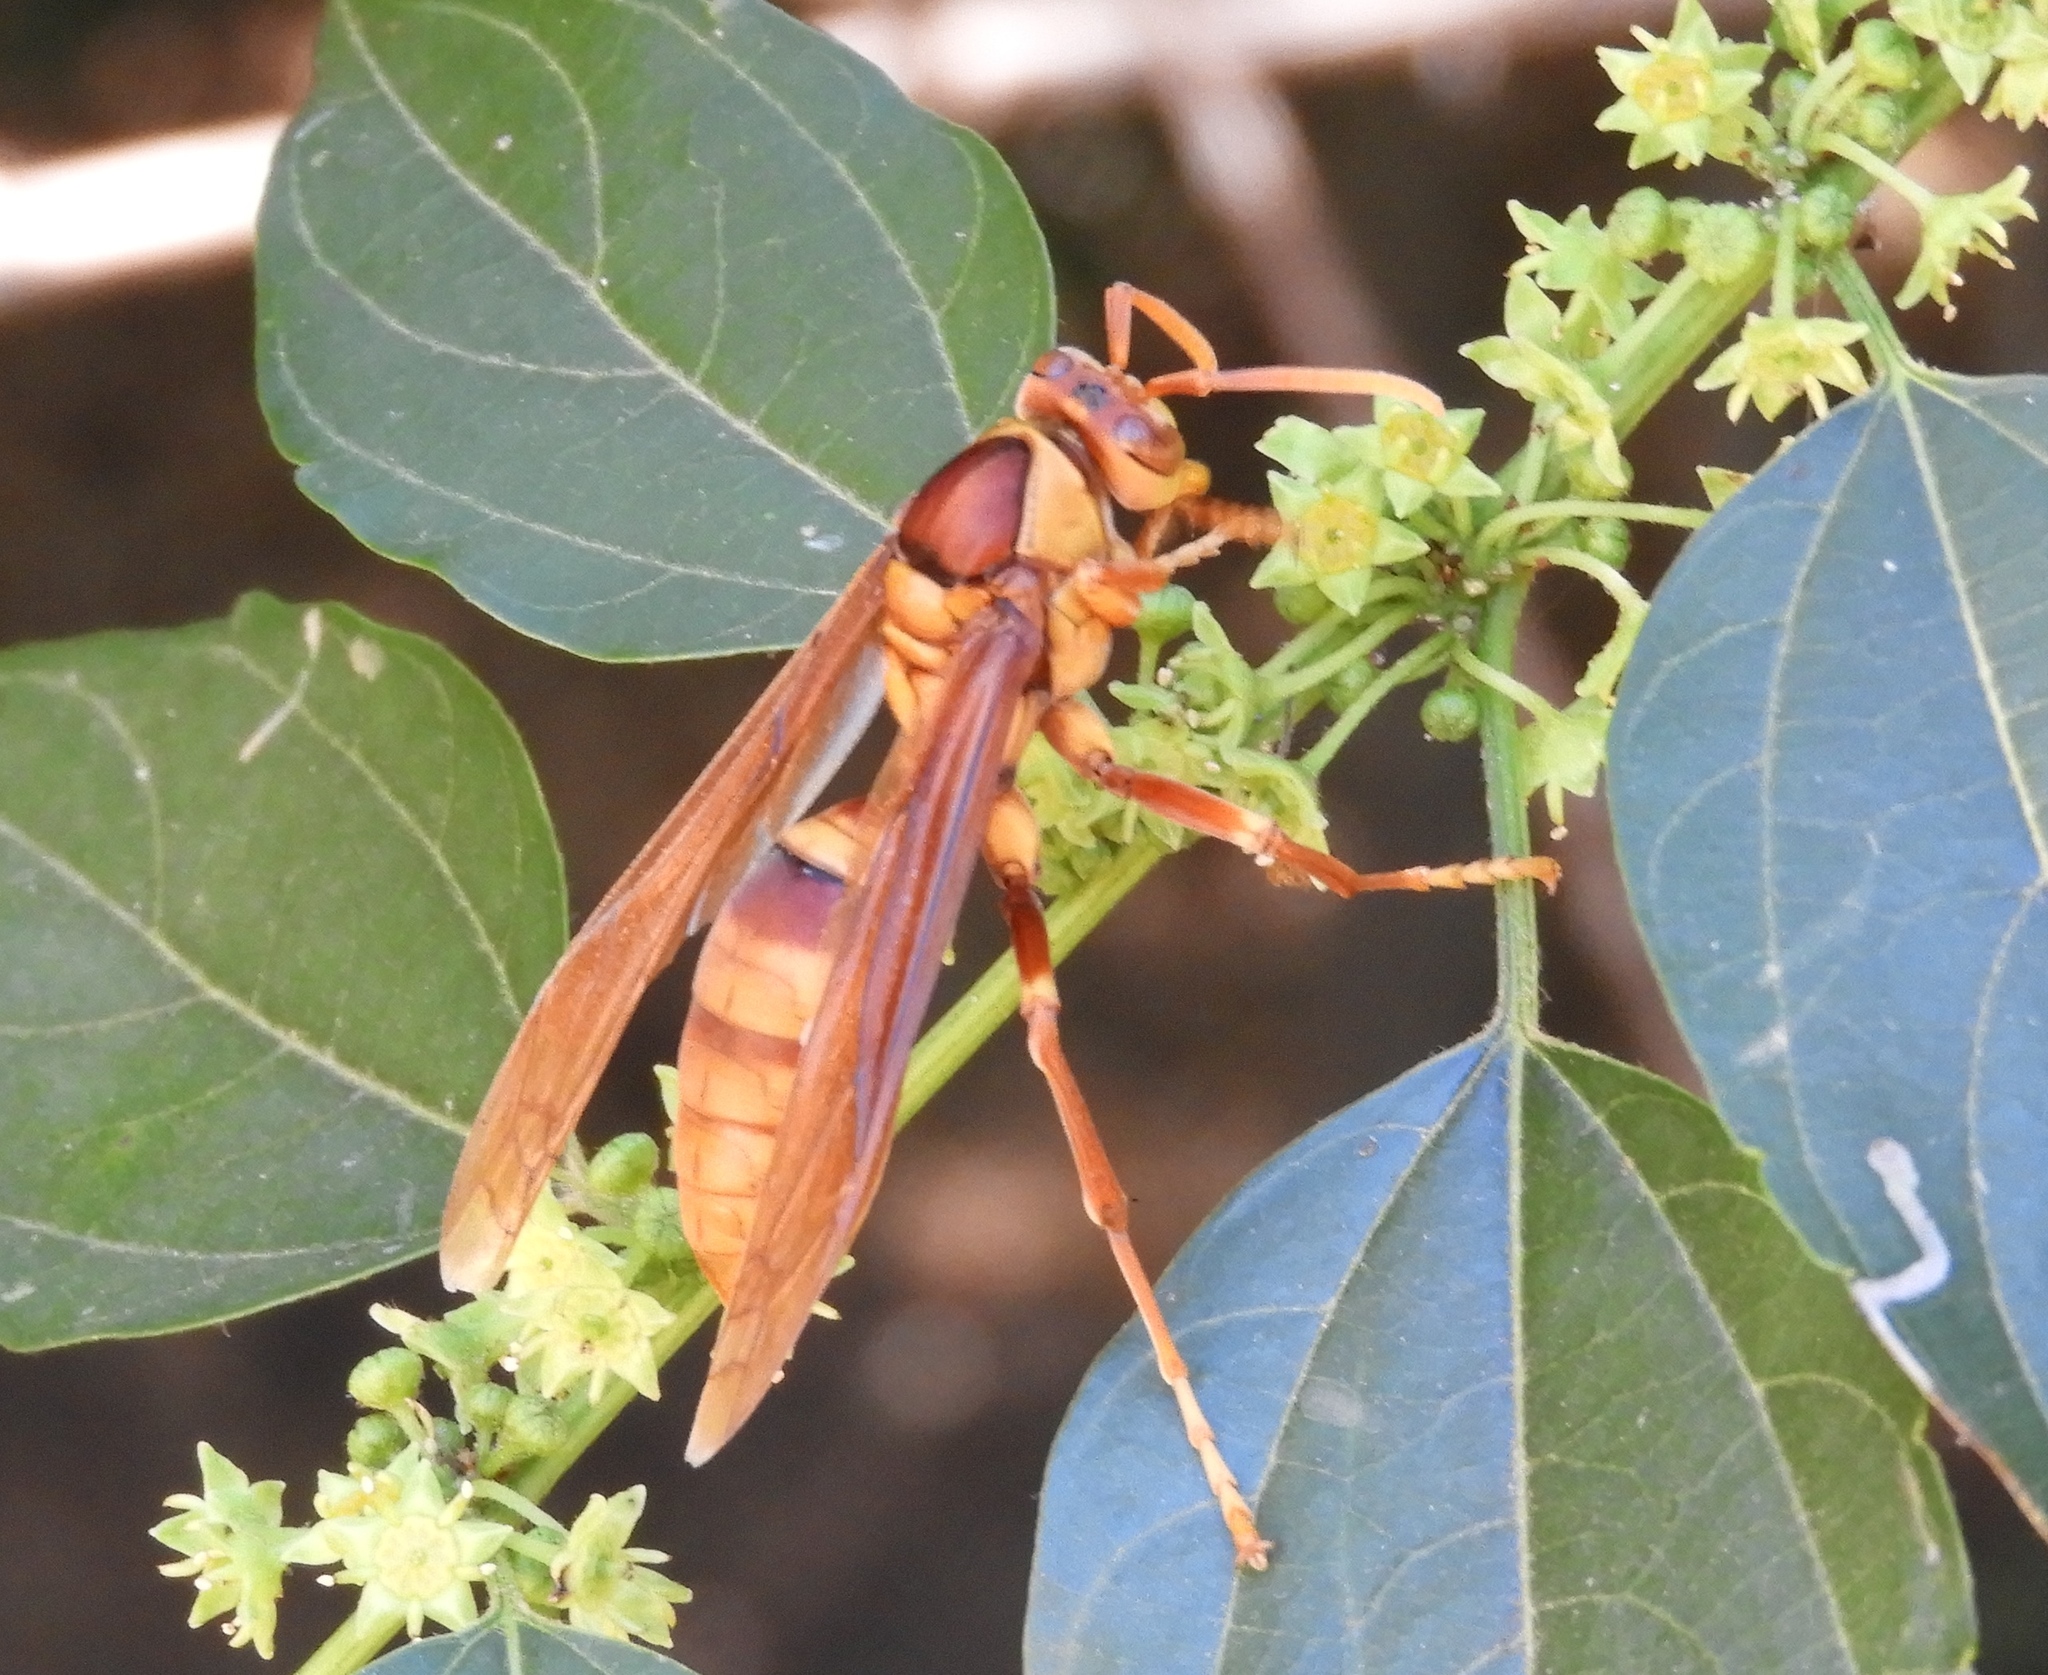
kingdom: Animalia
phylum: Arthropoda
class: Insecta
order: Hymenoptera
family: Eumenidae
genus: Polistes
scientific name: Polistes carnifex
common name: Paper wasp
